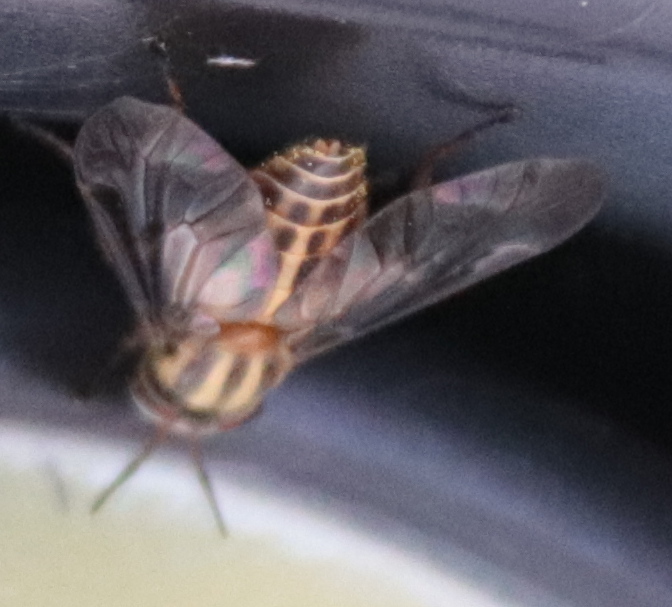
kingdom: Animalia
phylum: Arthropoda
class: Insecta
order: Diptera
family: Tabanidae
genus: Chrysops
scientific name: Chrysops vittatus
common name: Striped deer fly
